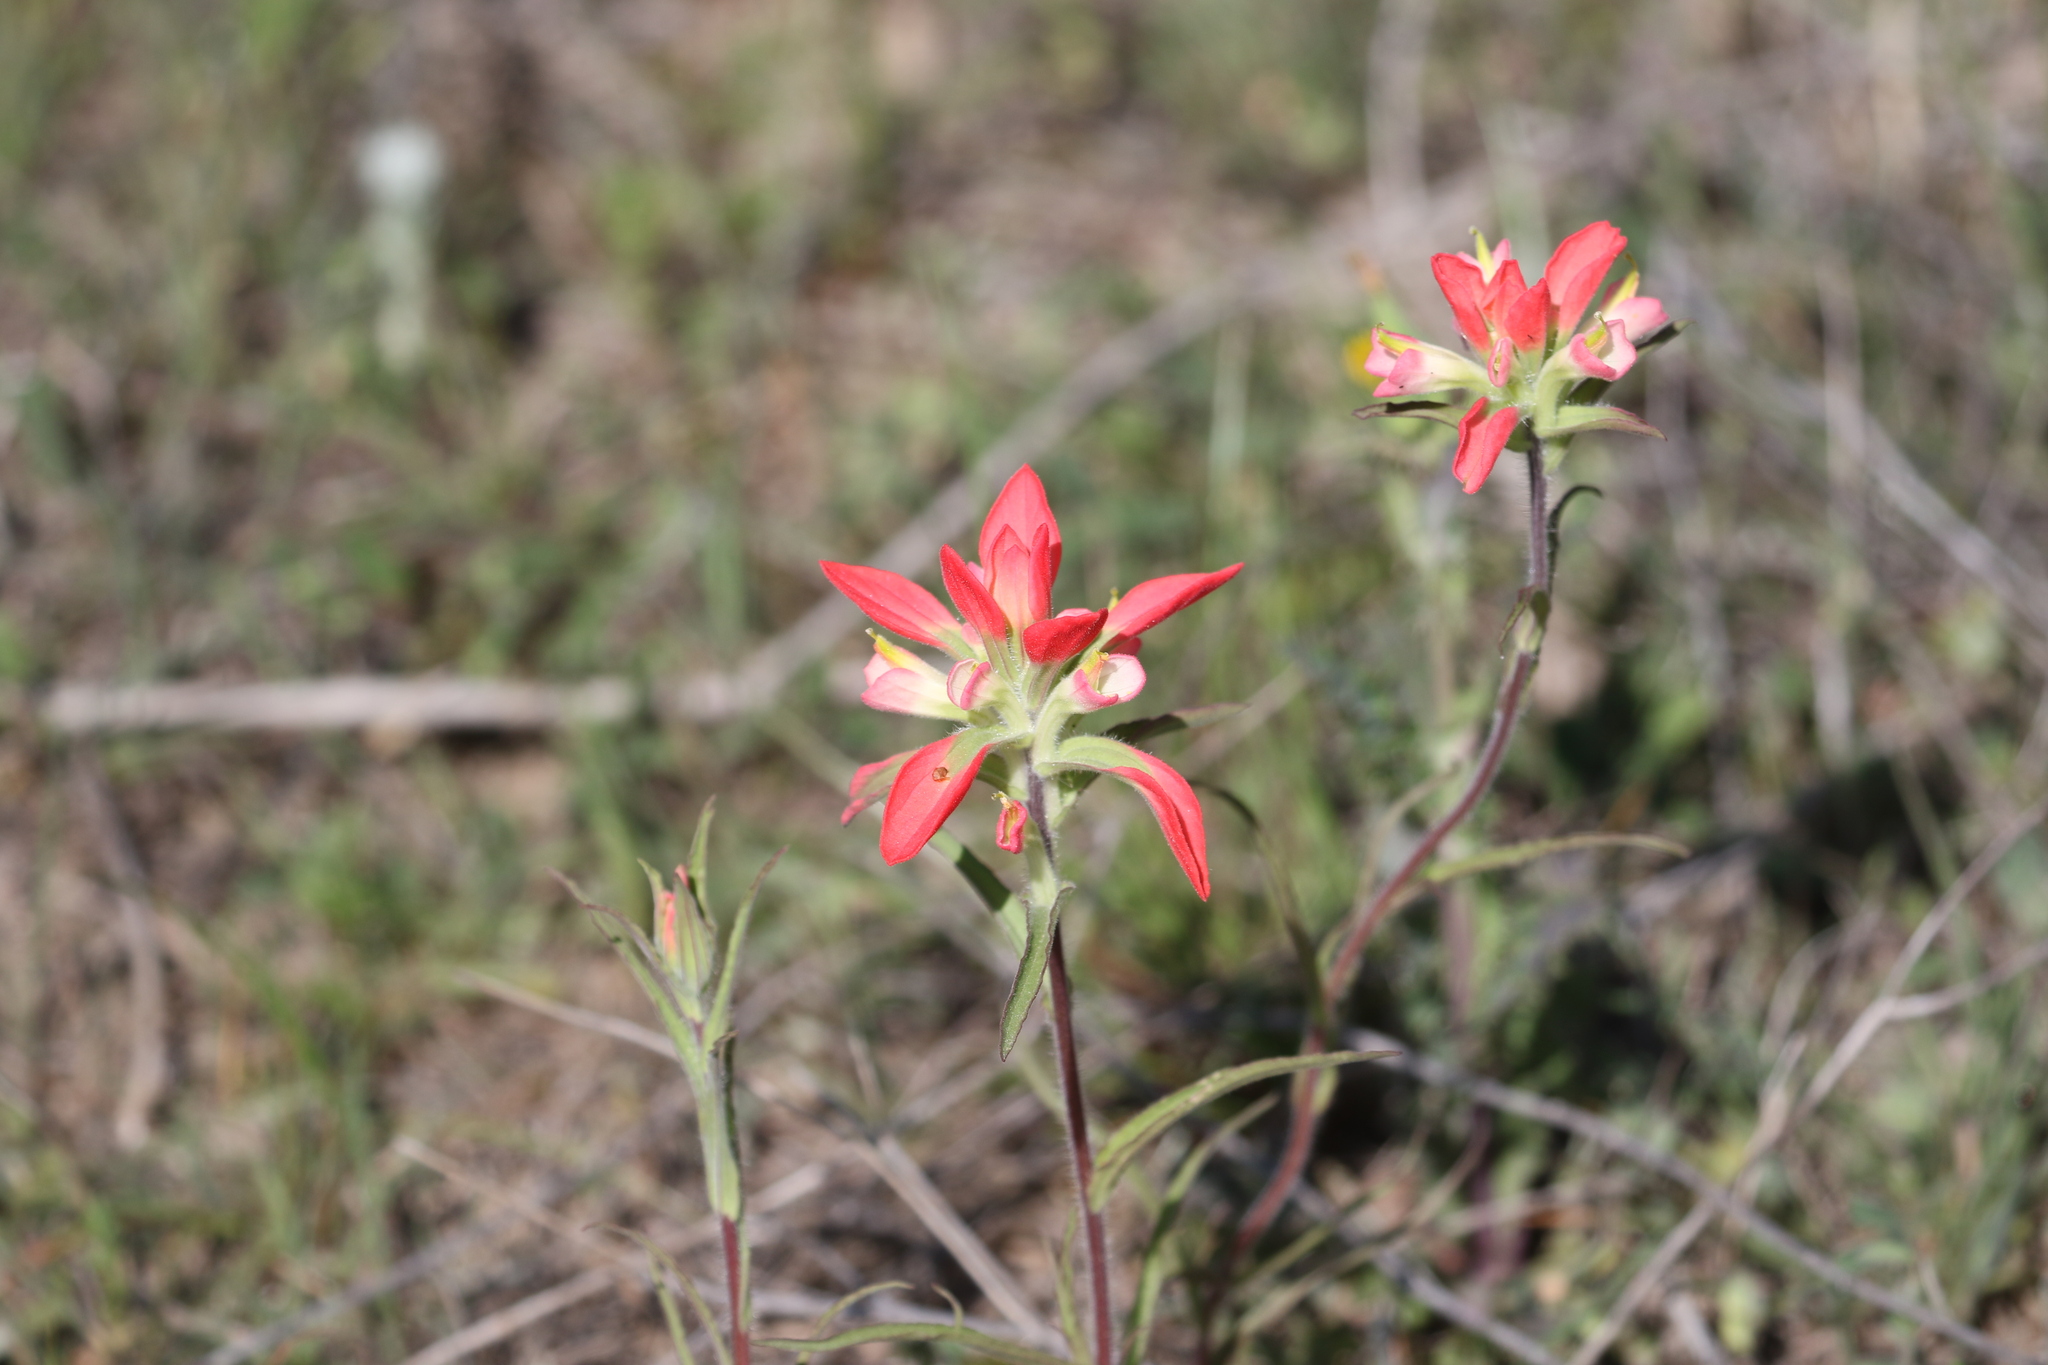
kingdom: Plantae
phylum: Tracheophyta
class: Magnoliopsida
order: Lamiales
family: Orobanchaceae
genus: Castilleja
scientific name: Castilleja indivisa
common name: Texas paintbrush
